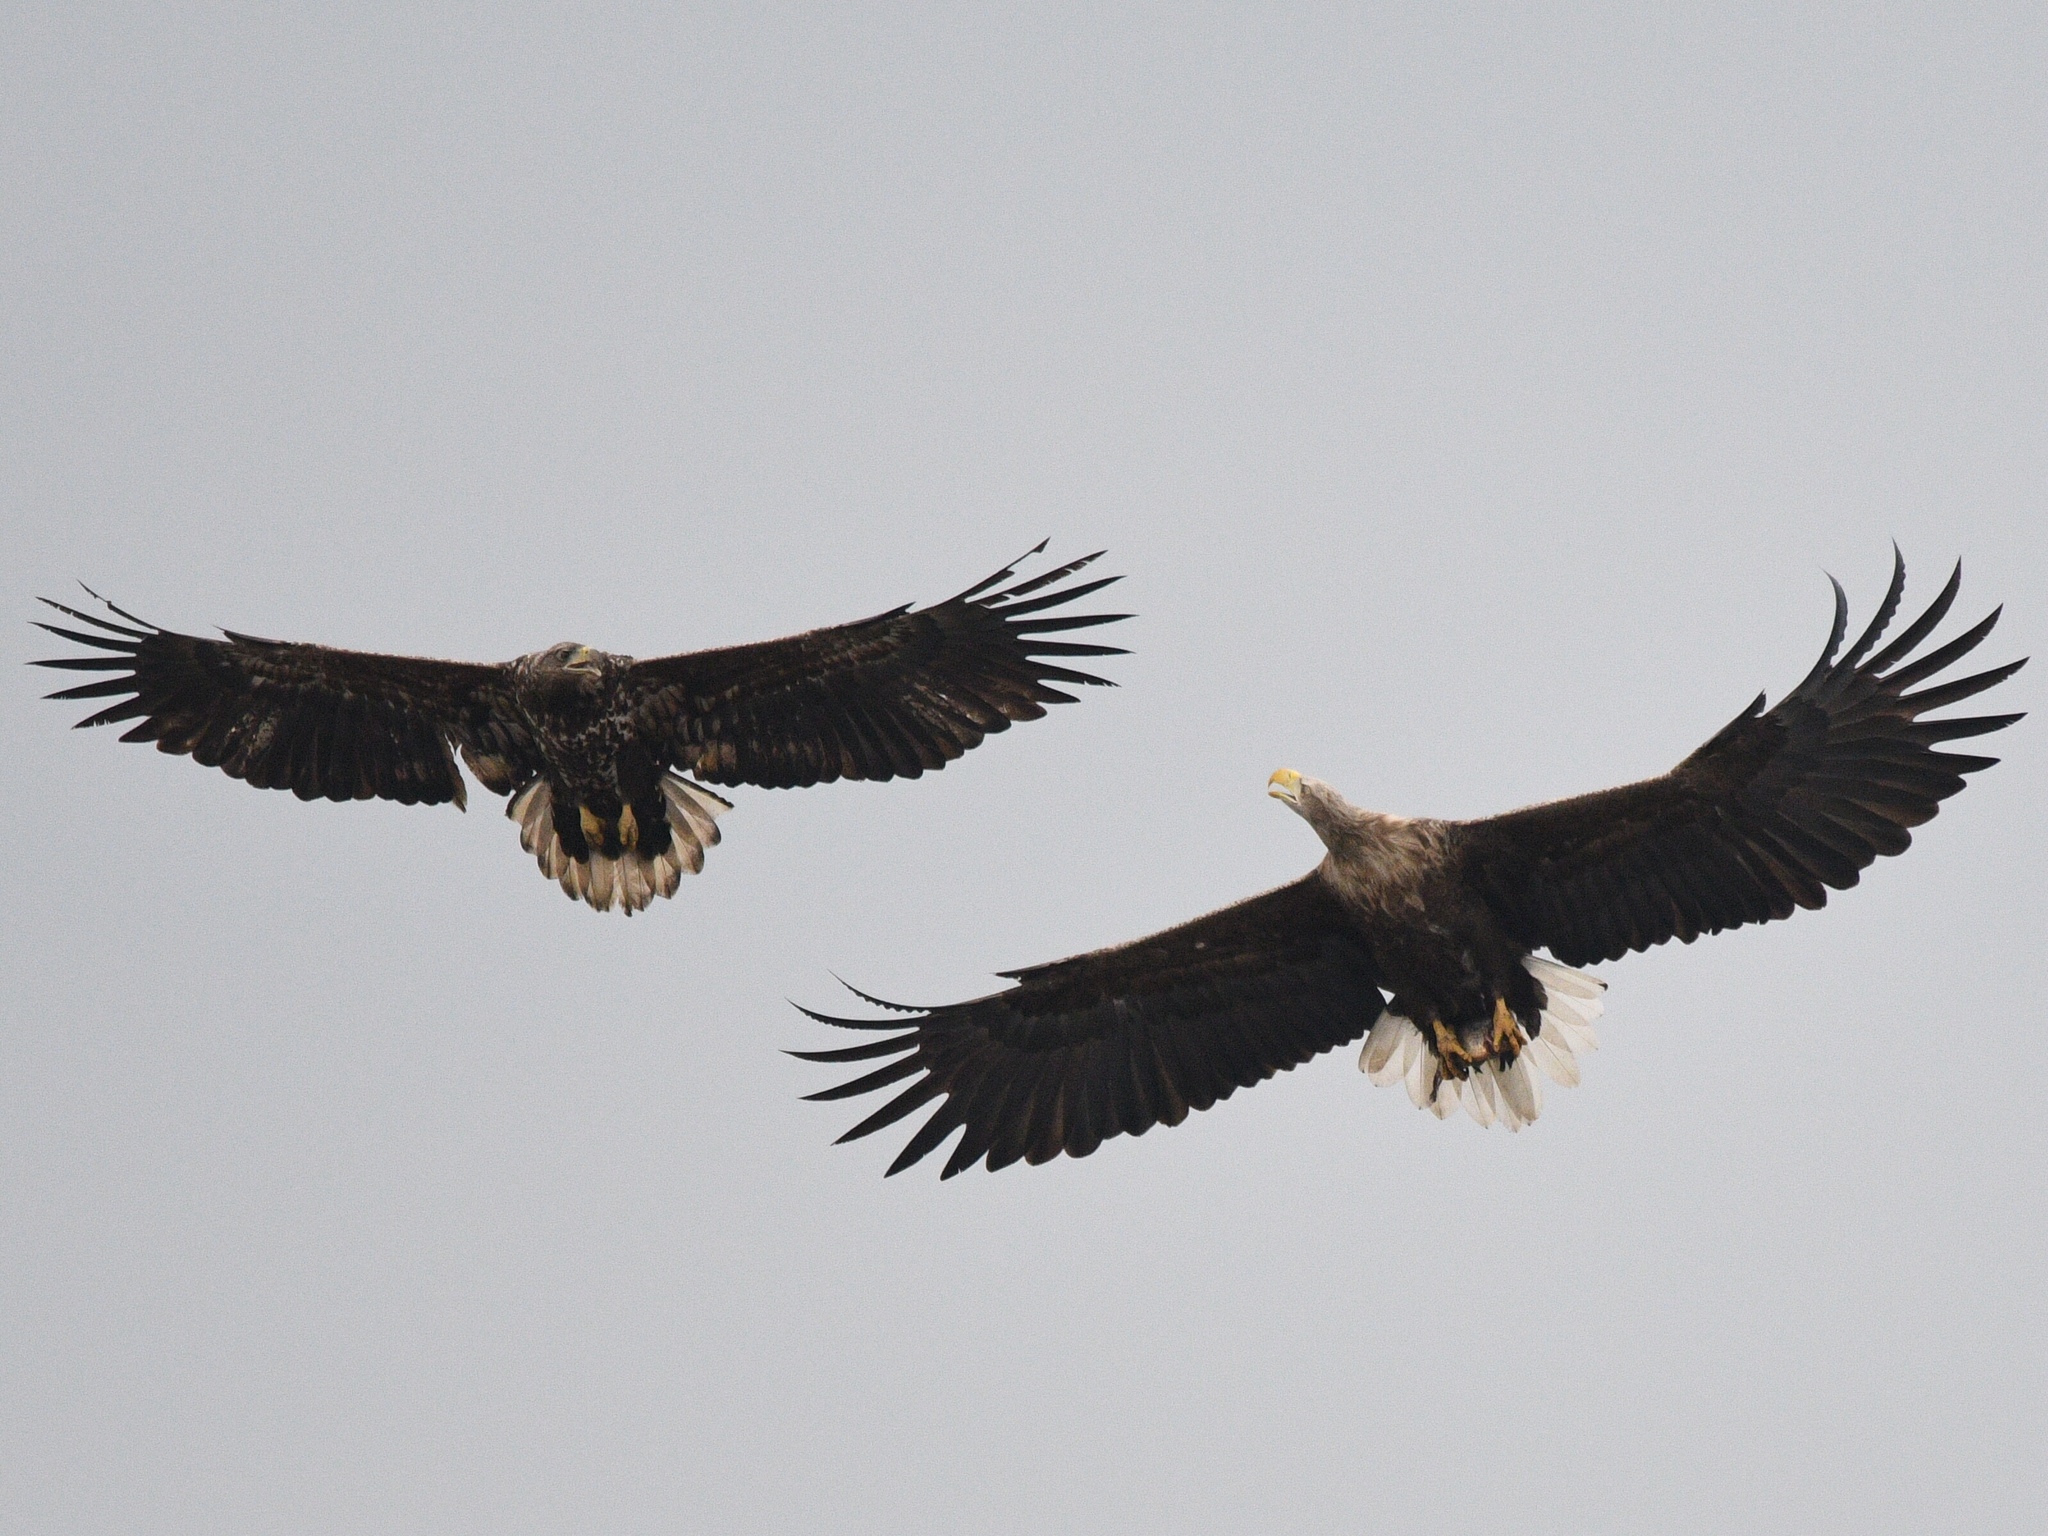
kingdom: Animalia
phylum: Chordata
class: Aves
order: Accipitriformes
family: Accipitridae
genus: Haliaeetus
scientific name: Haliaeetus albicilla
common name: White-tailed eagle
